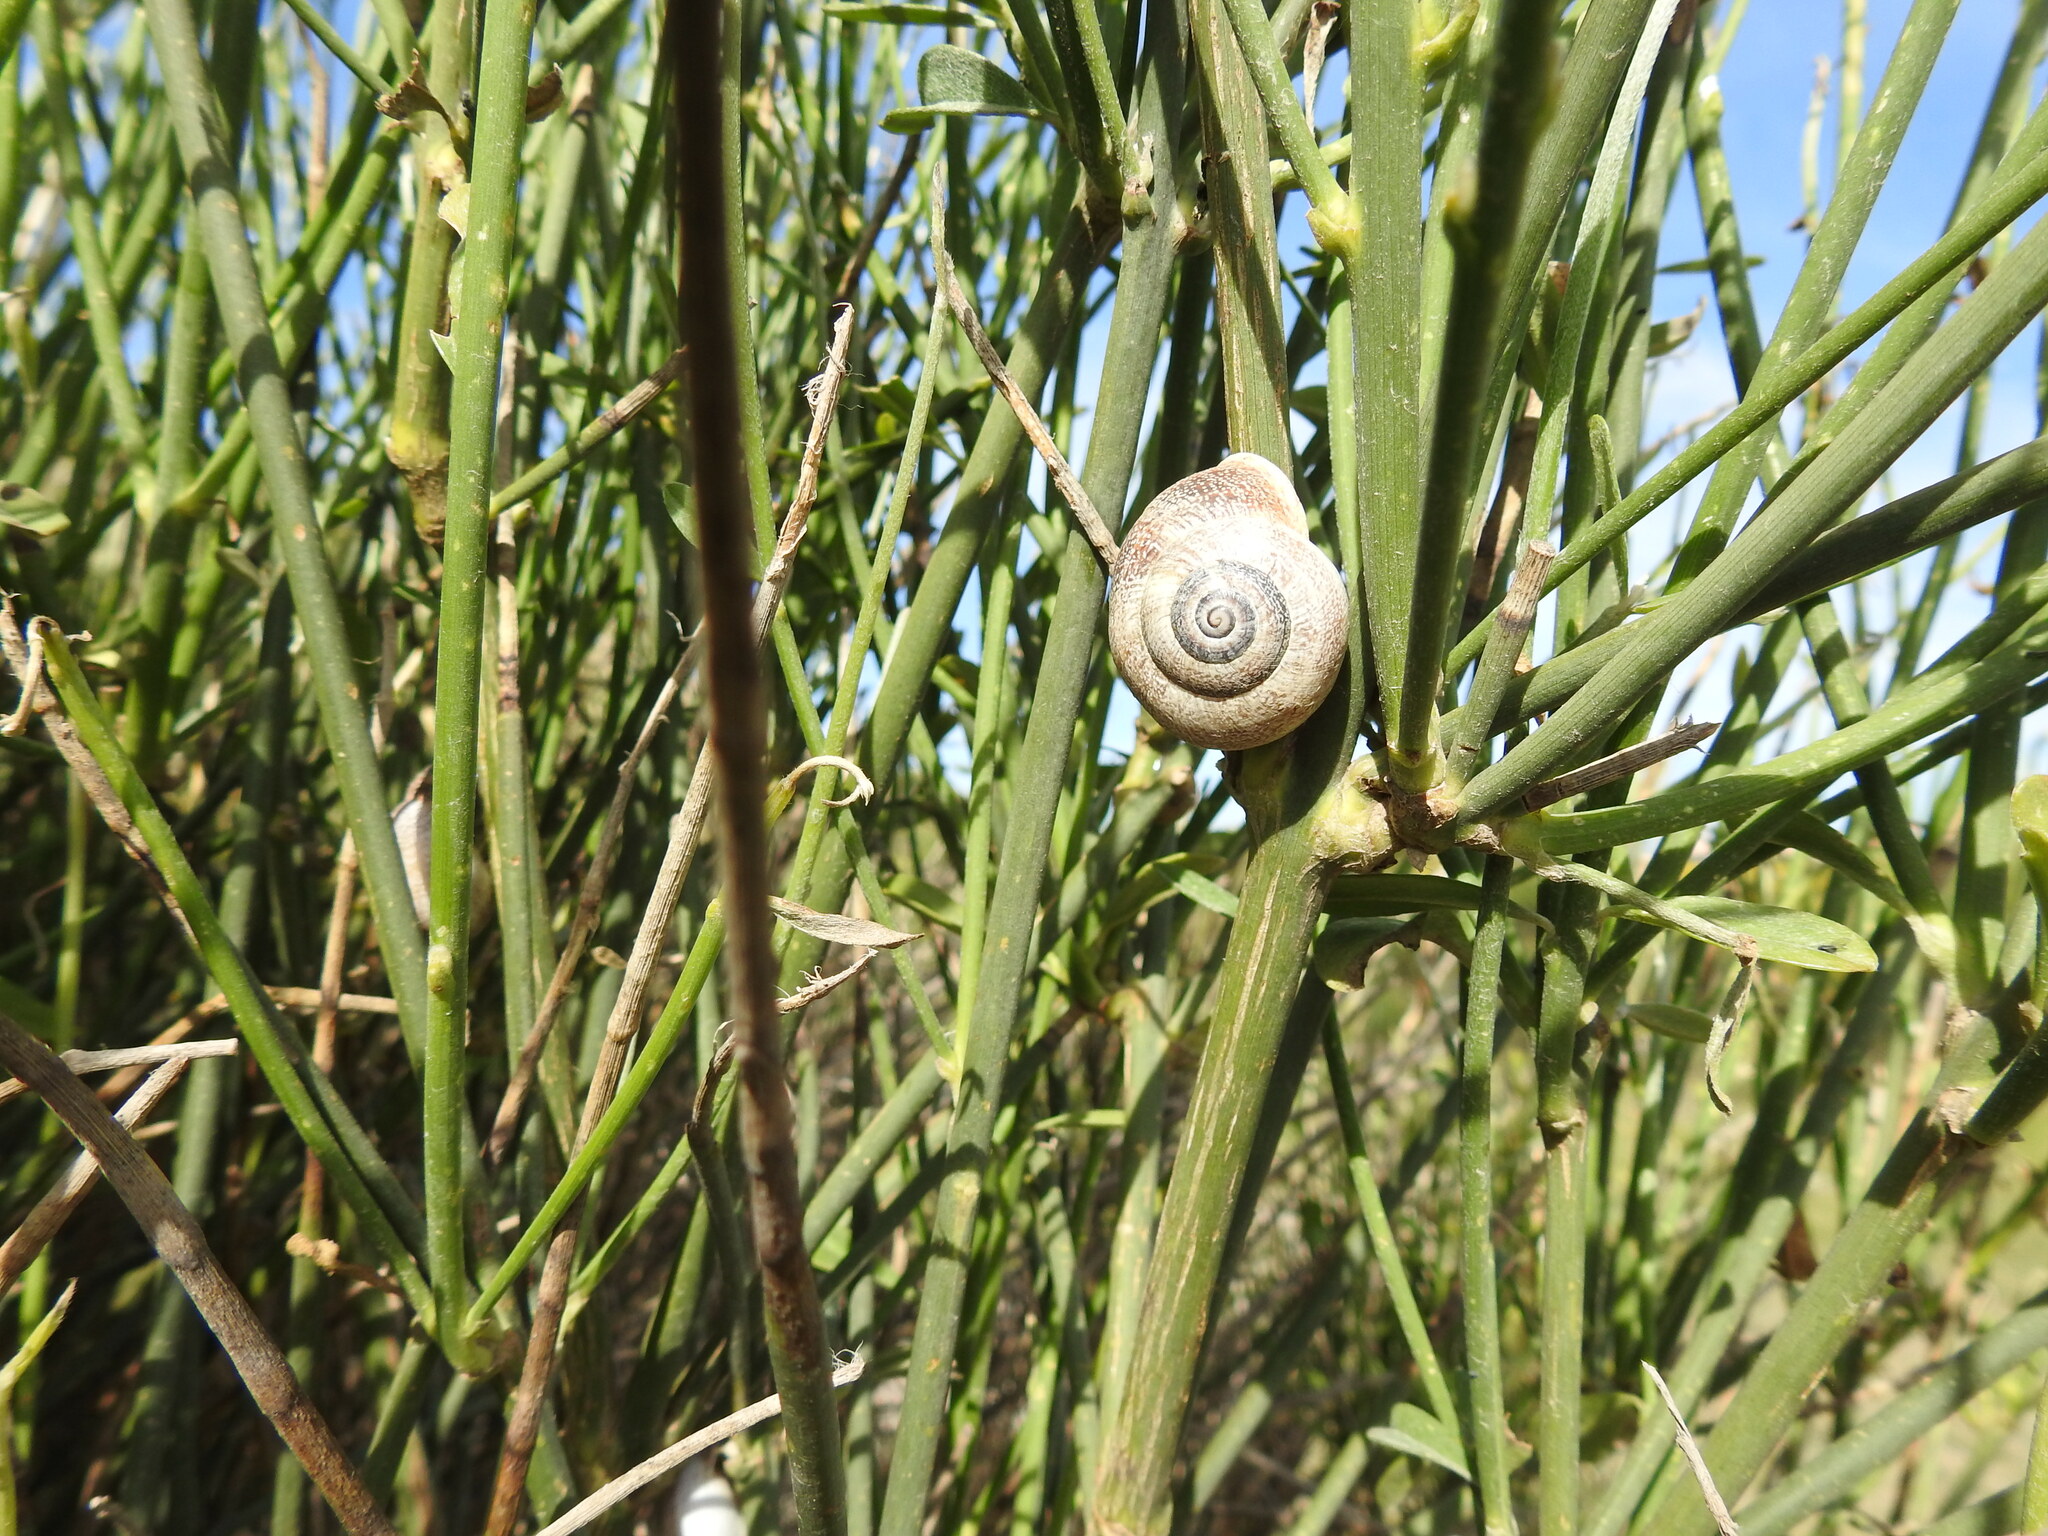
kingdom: Animalia
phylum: Mollusca
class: Gastropoda
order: Stylommatophora
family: Helicidae
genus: Otala
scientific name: Otala punctata
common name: Milk snail
